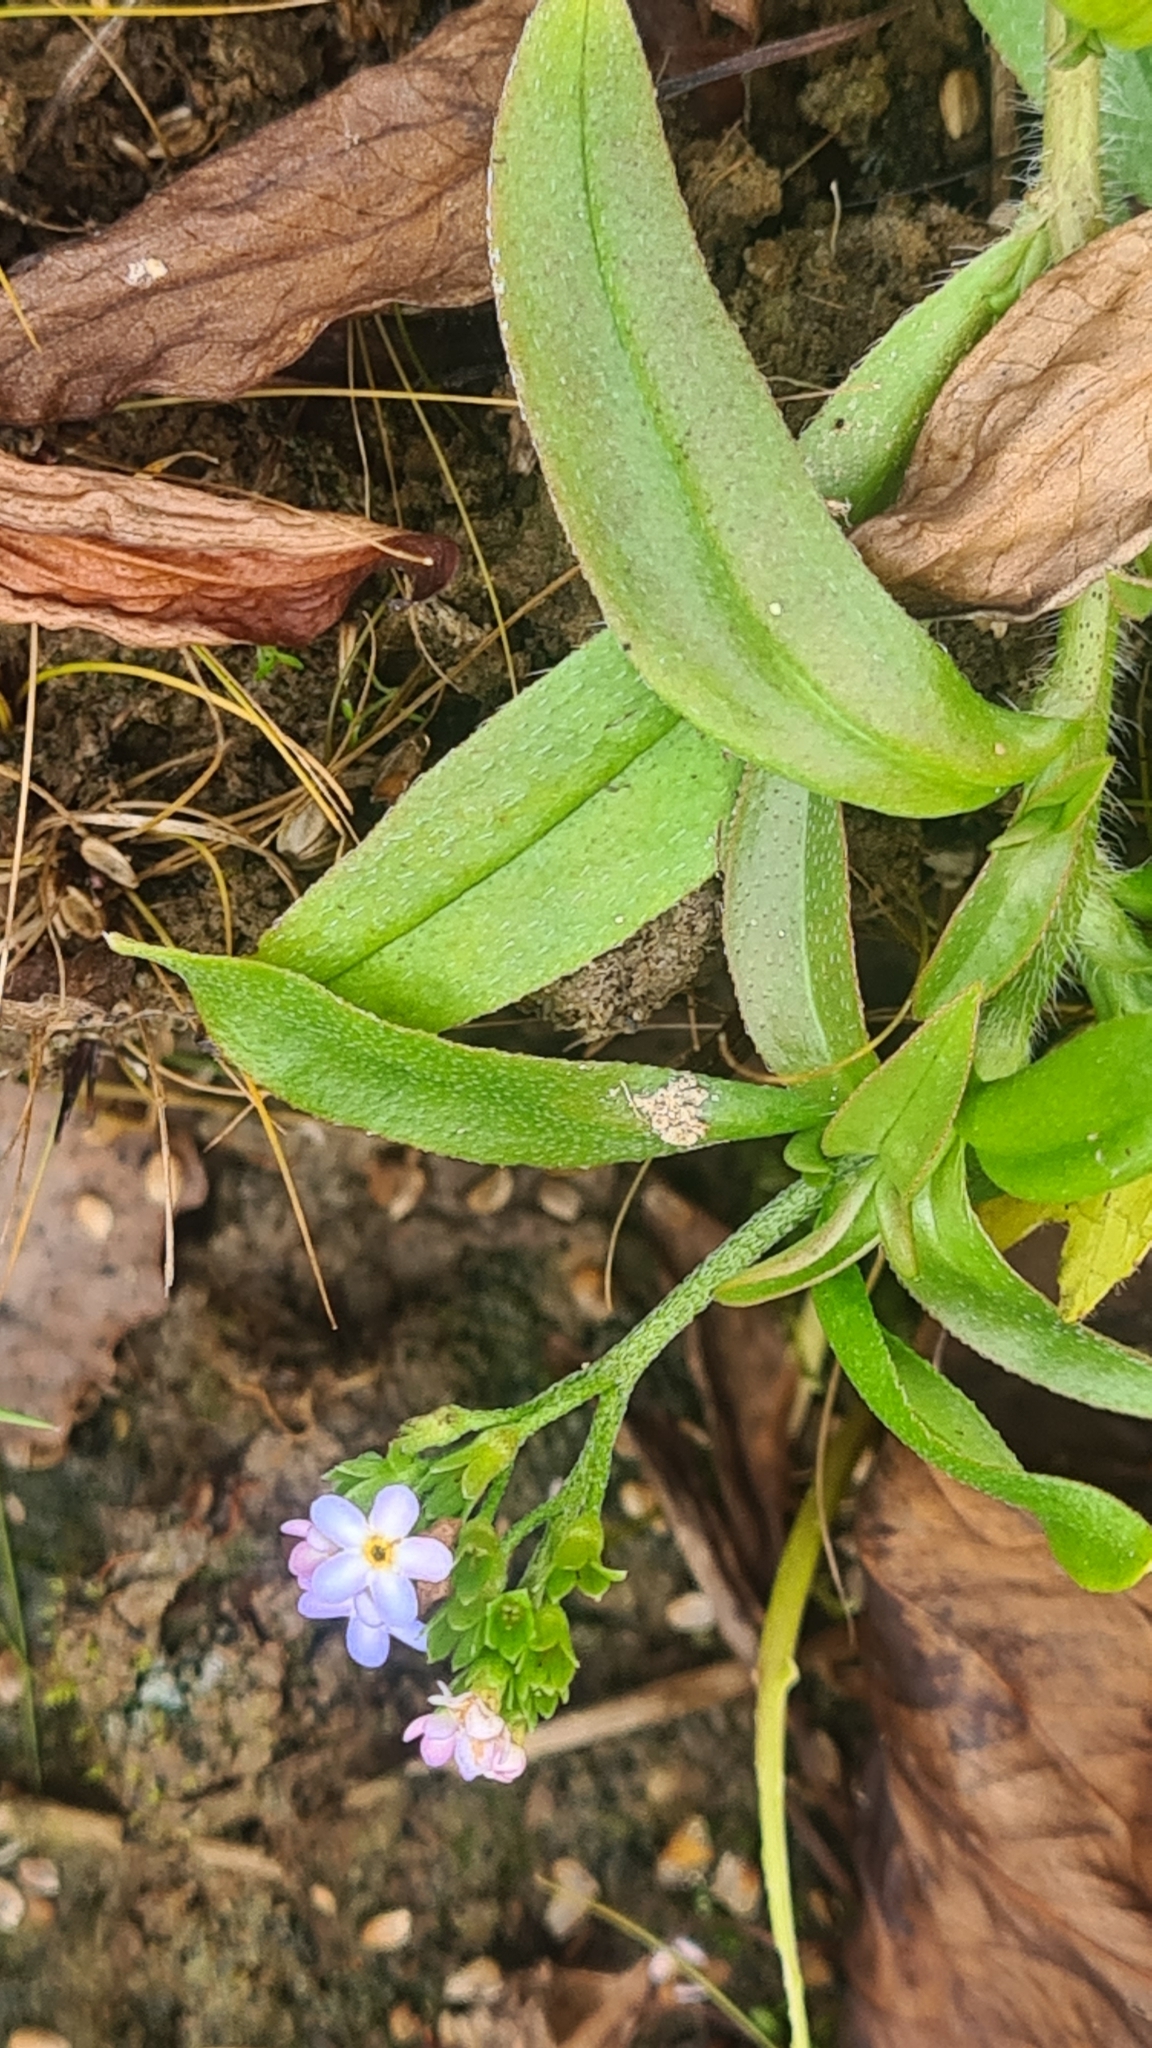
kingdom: Plantae
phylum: Tracheophyta
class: Magnoliopsida
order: Boraginales
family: Boraginaceae
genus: Myosotis
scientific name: Myosotis scorpioides
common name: Water forget-me-not
